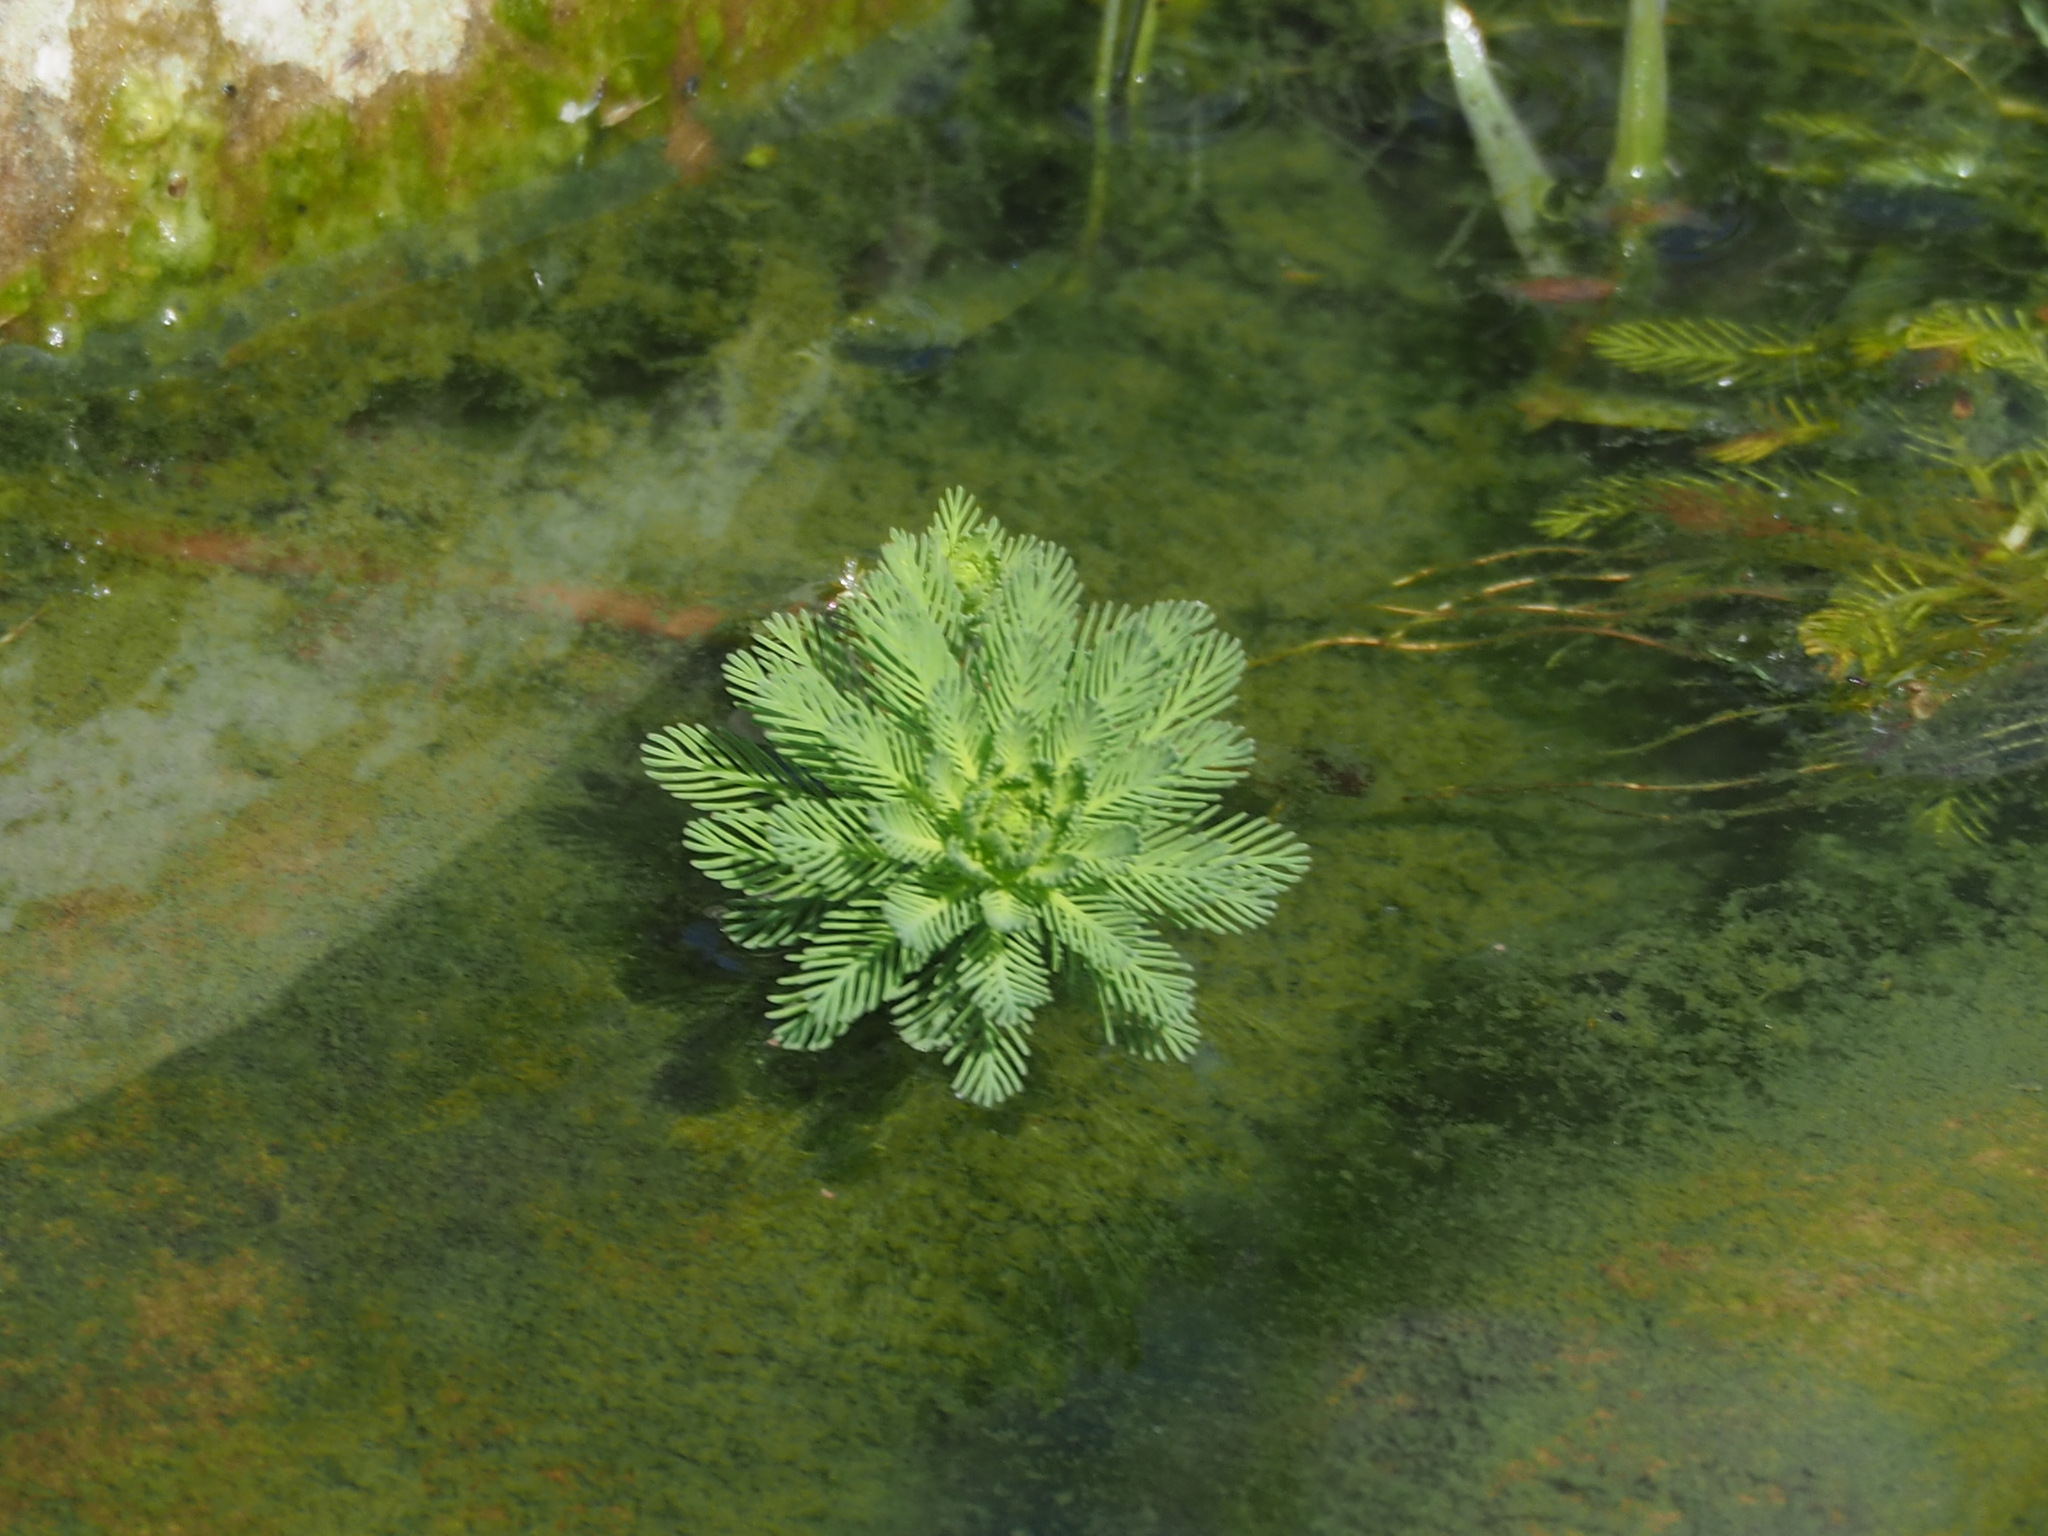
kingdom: Plantae
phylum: Tracheophyta
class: Magnoliopsida
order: Saxifragales
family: Haloragaceae
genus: Myriophyllum
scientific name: Myriophyllum aquaticum
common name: Parrot's feather
